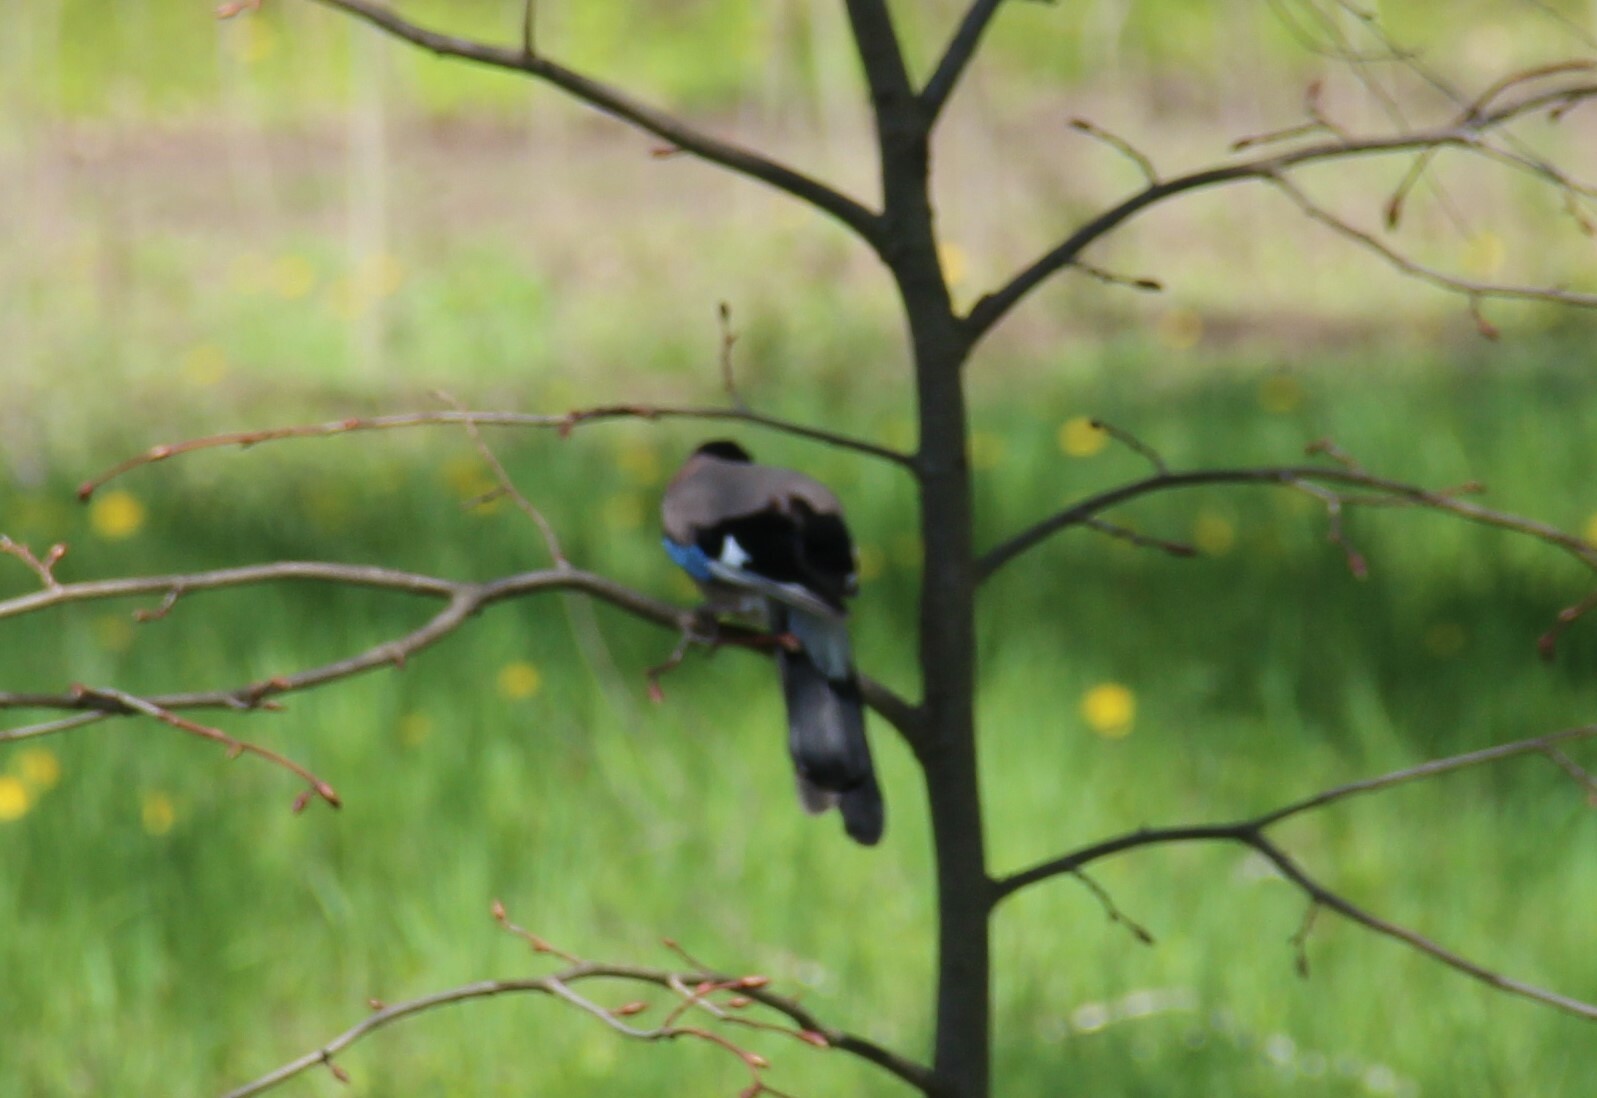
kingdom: Animalia
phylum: Chordata
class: Aves
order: Passeriformes
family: Corvidae
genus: Garrulus
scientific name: Garrulus glandarius
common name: Eurasian jay
